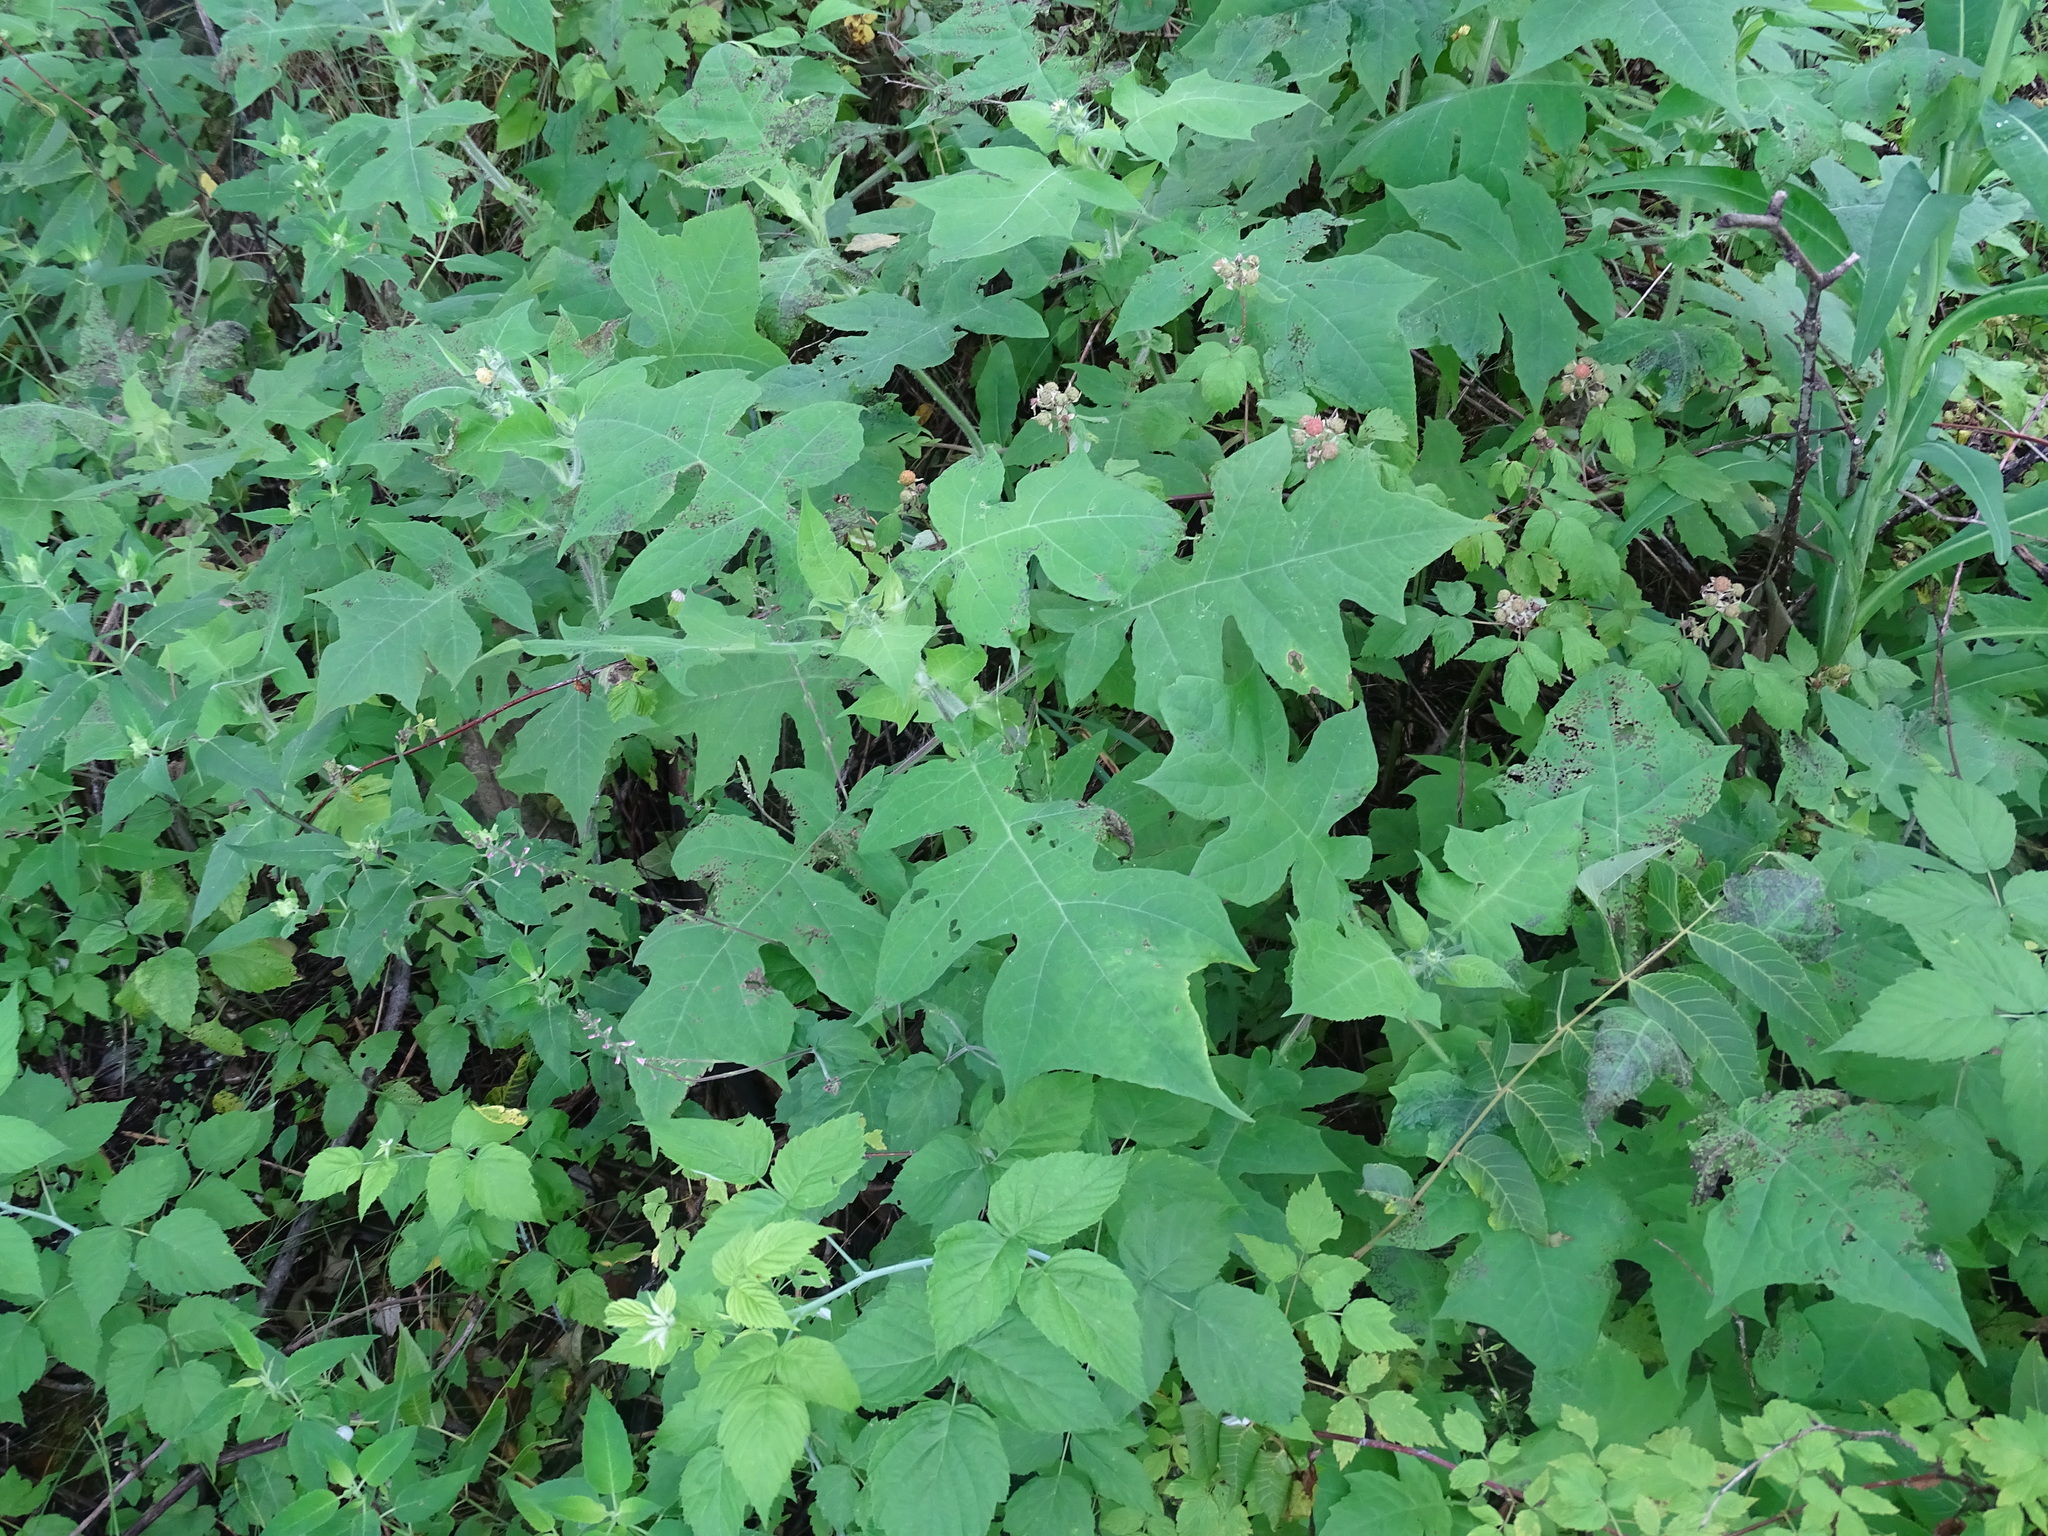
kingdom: Plantae
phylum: Tracheophyta
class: Magnoliopsida
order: Asterales
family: Asteraceae
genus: Polymnia
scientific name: Polymnia canadensis
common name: Pale-flowered leafcup
